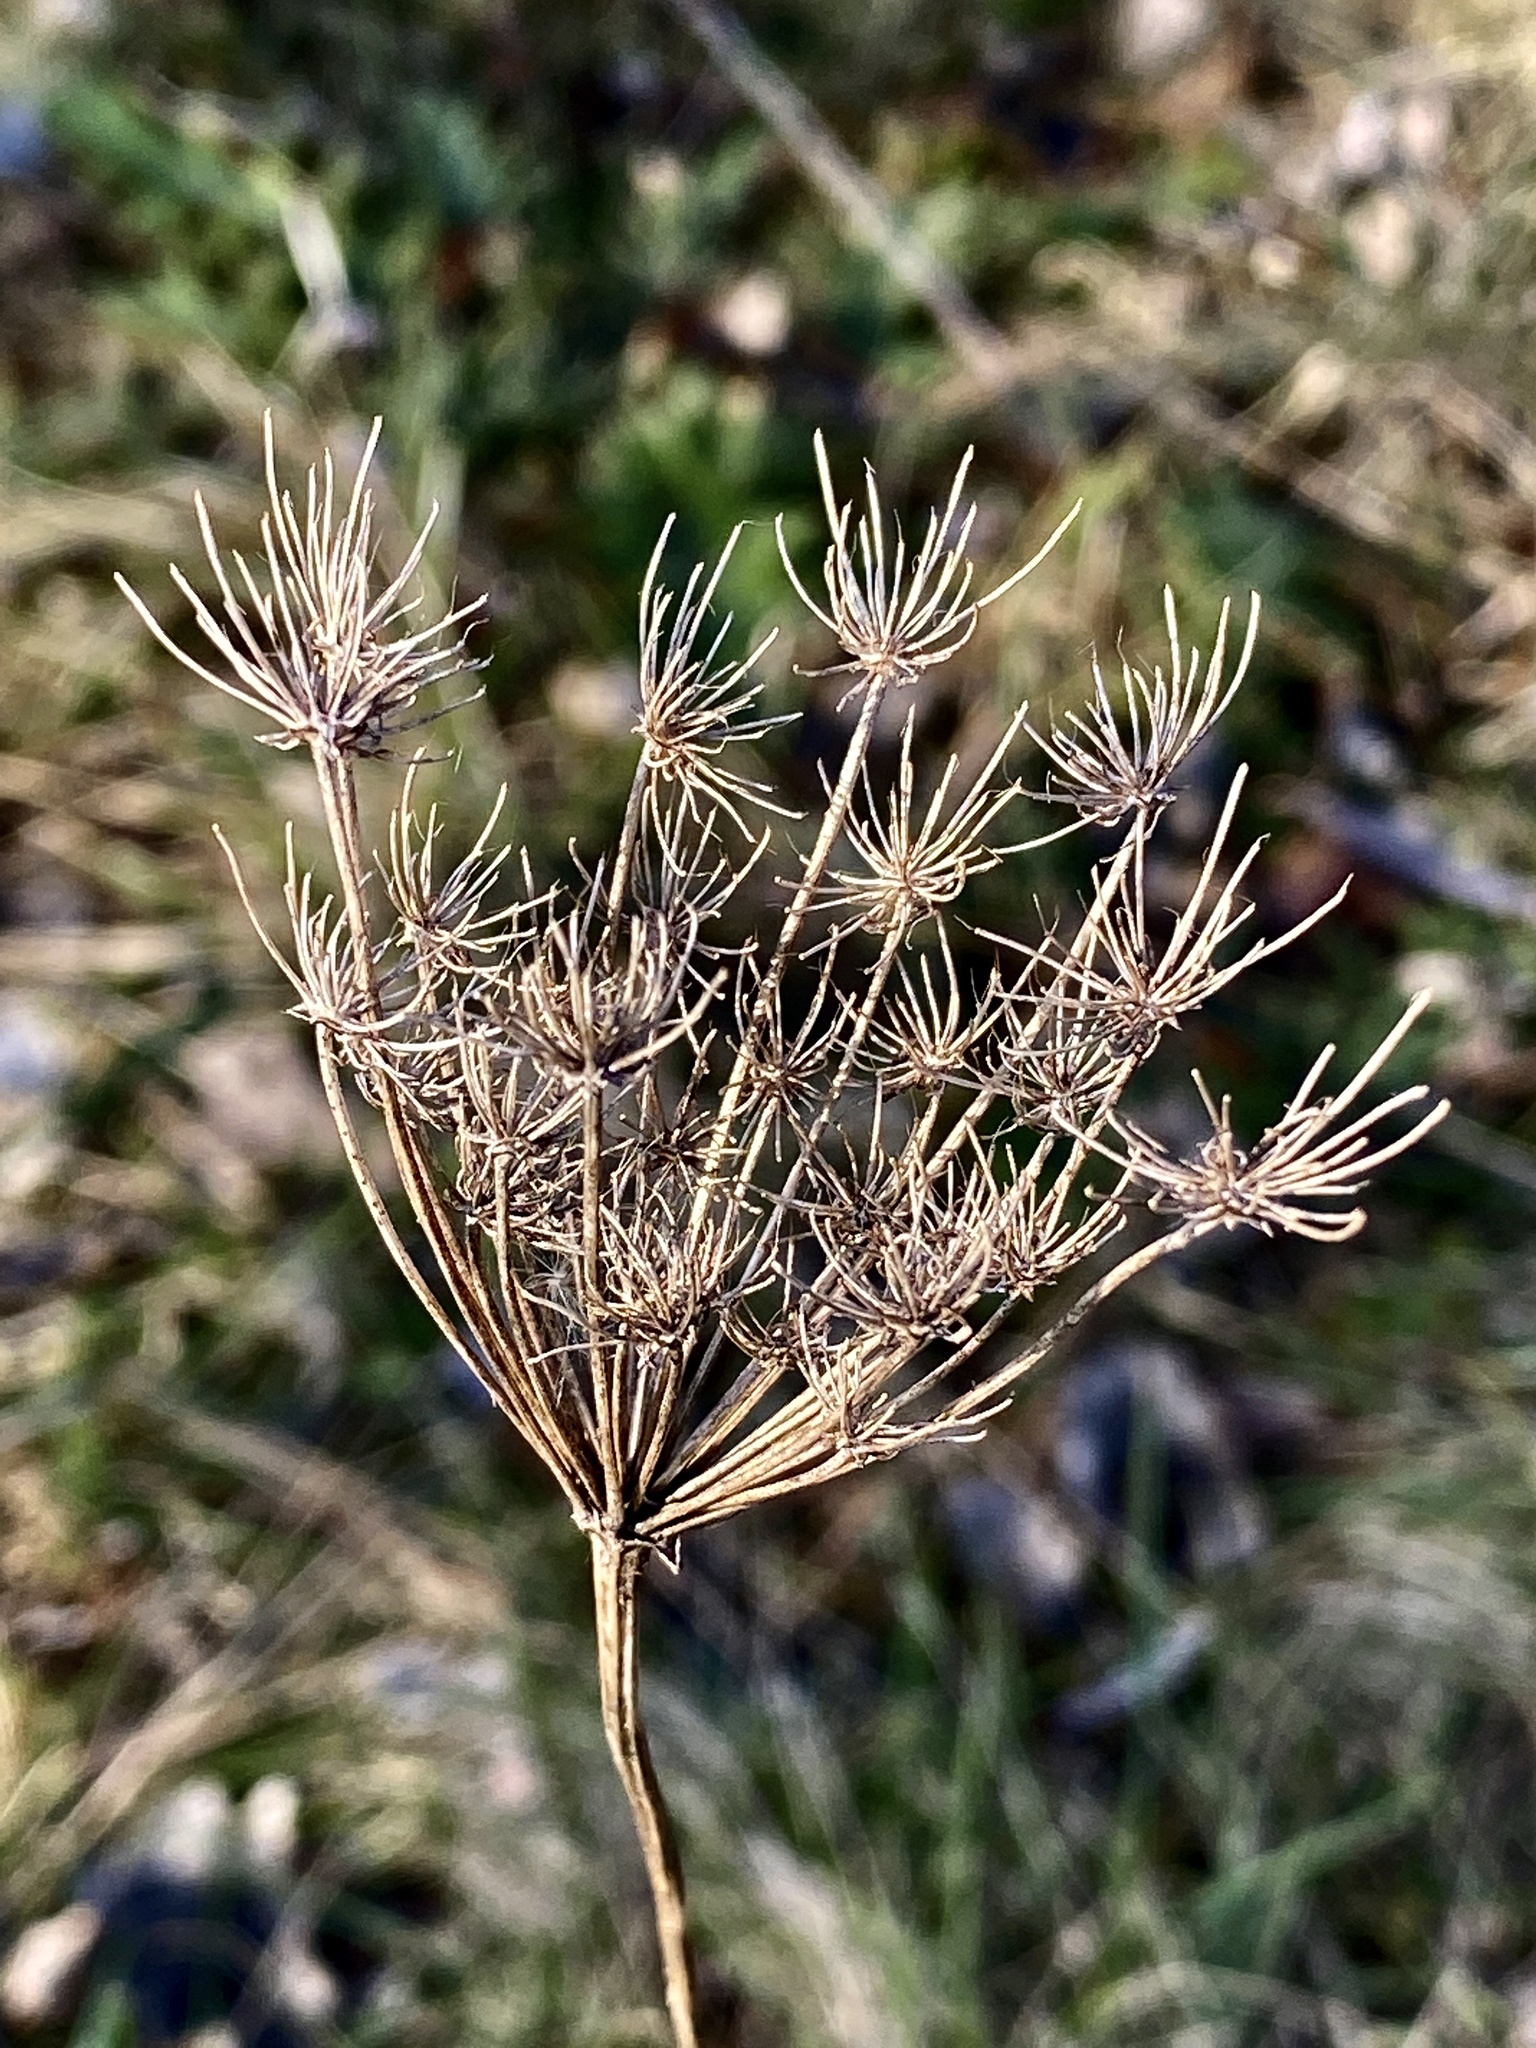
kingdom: Plantae
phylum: Tracheophyta
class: Magnoliopsida
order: Apiales
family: Apiaceae
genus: Daucus
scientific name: Daucus carota
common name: Wild carrot
